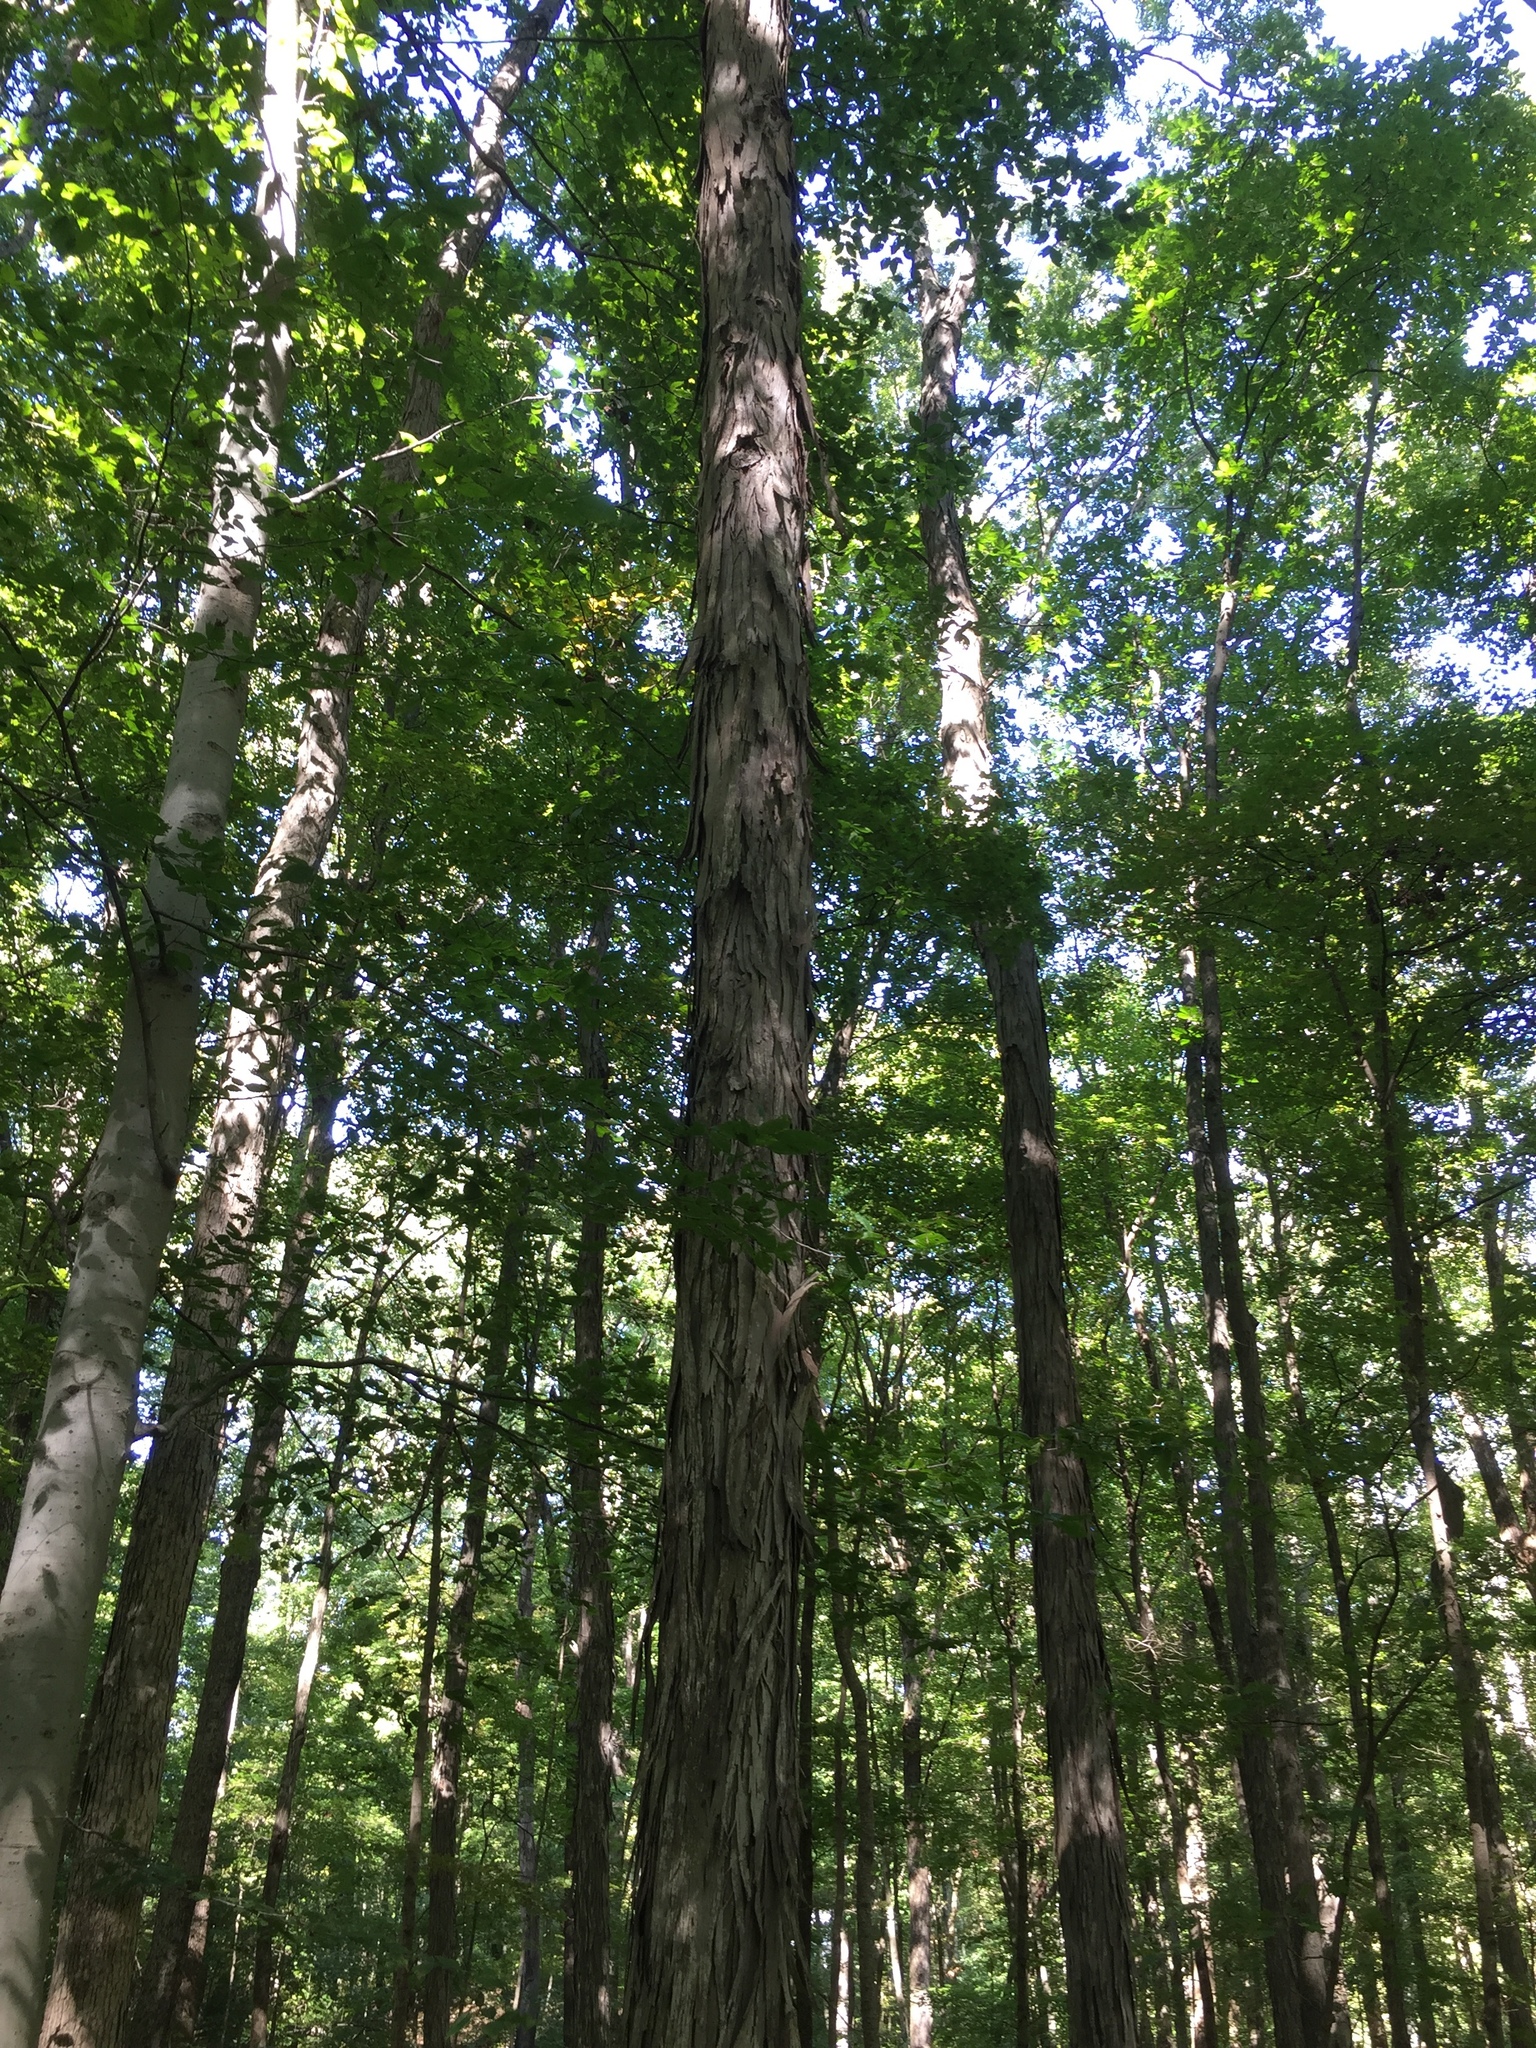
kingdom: Plantae
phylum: Tracheophyta
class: Magnoliopsida
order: Fagales
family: Juglandaceae
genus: Carya
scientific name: Carya ovata
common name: Shagbark hickory
